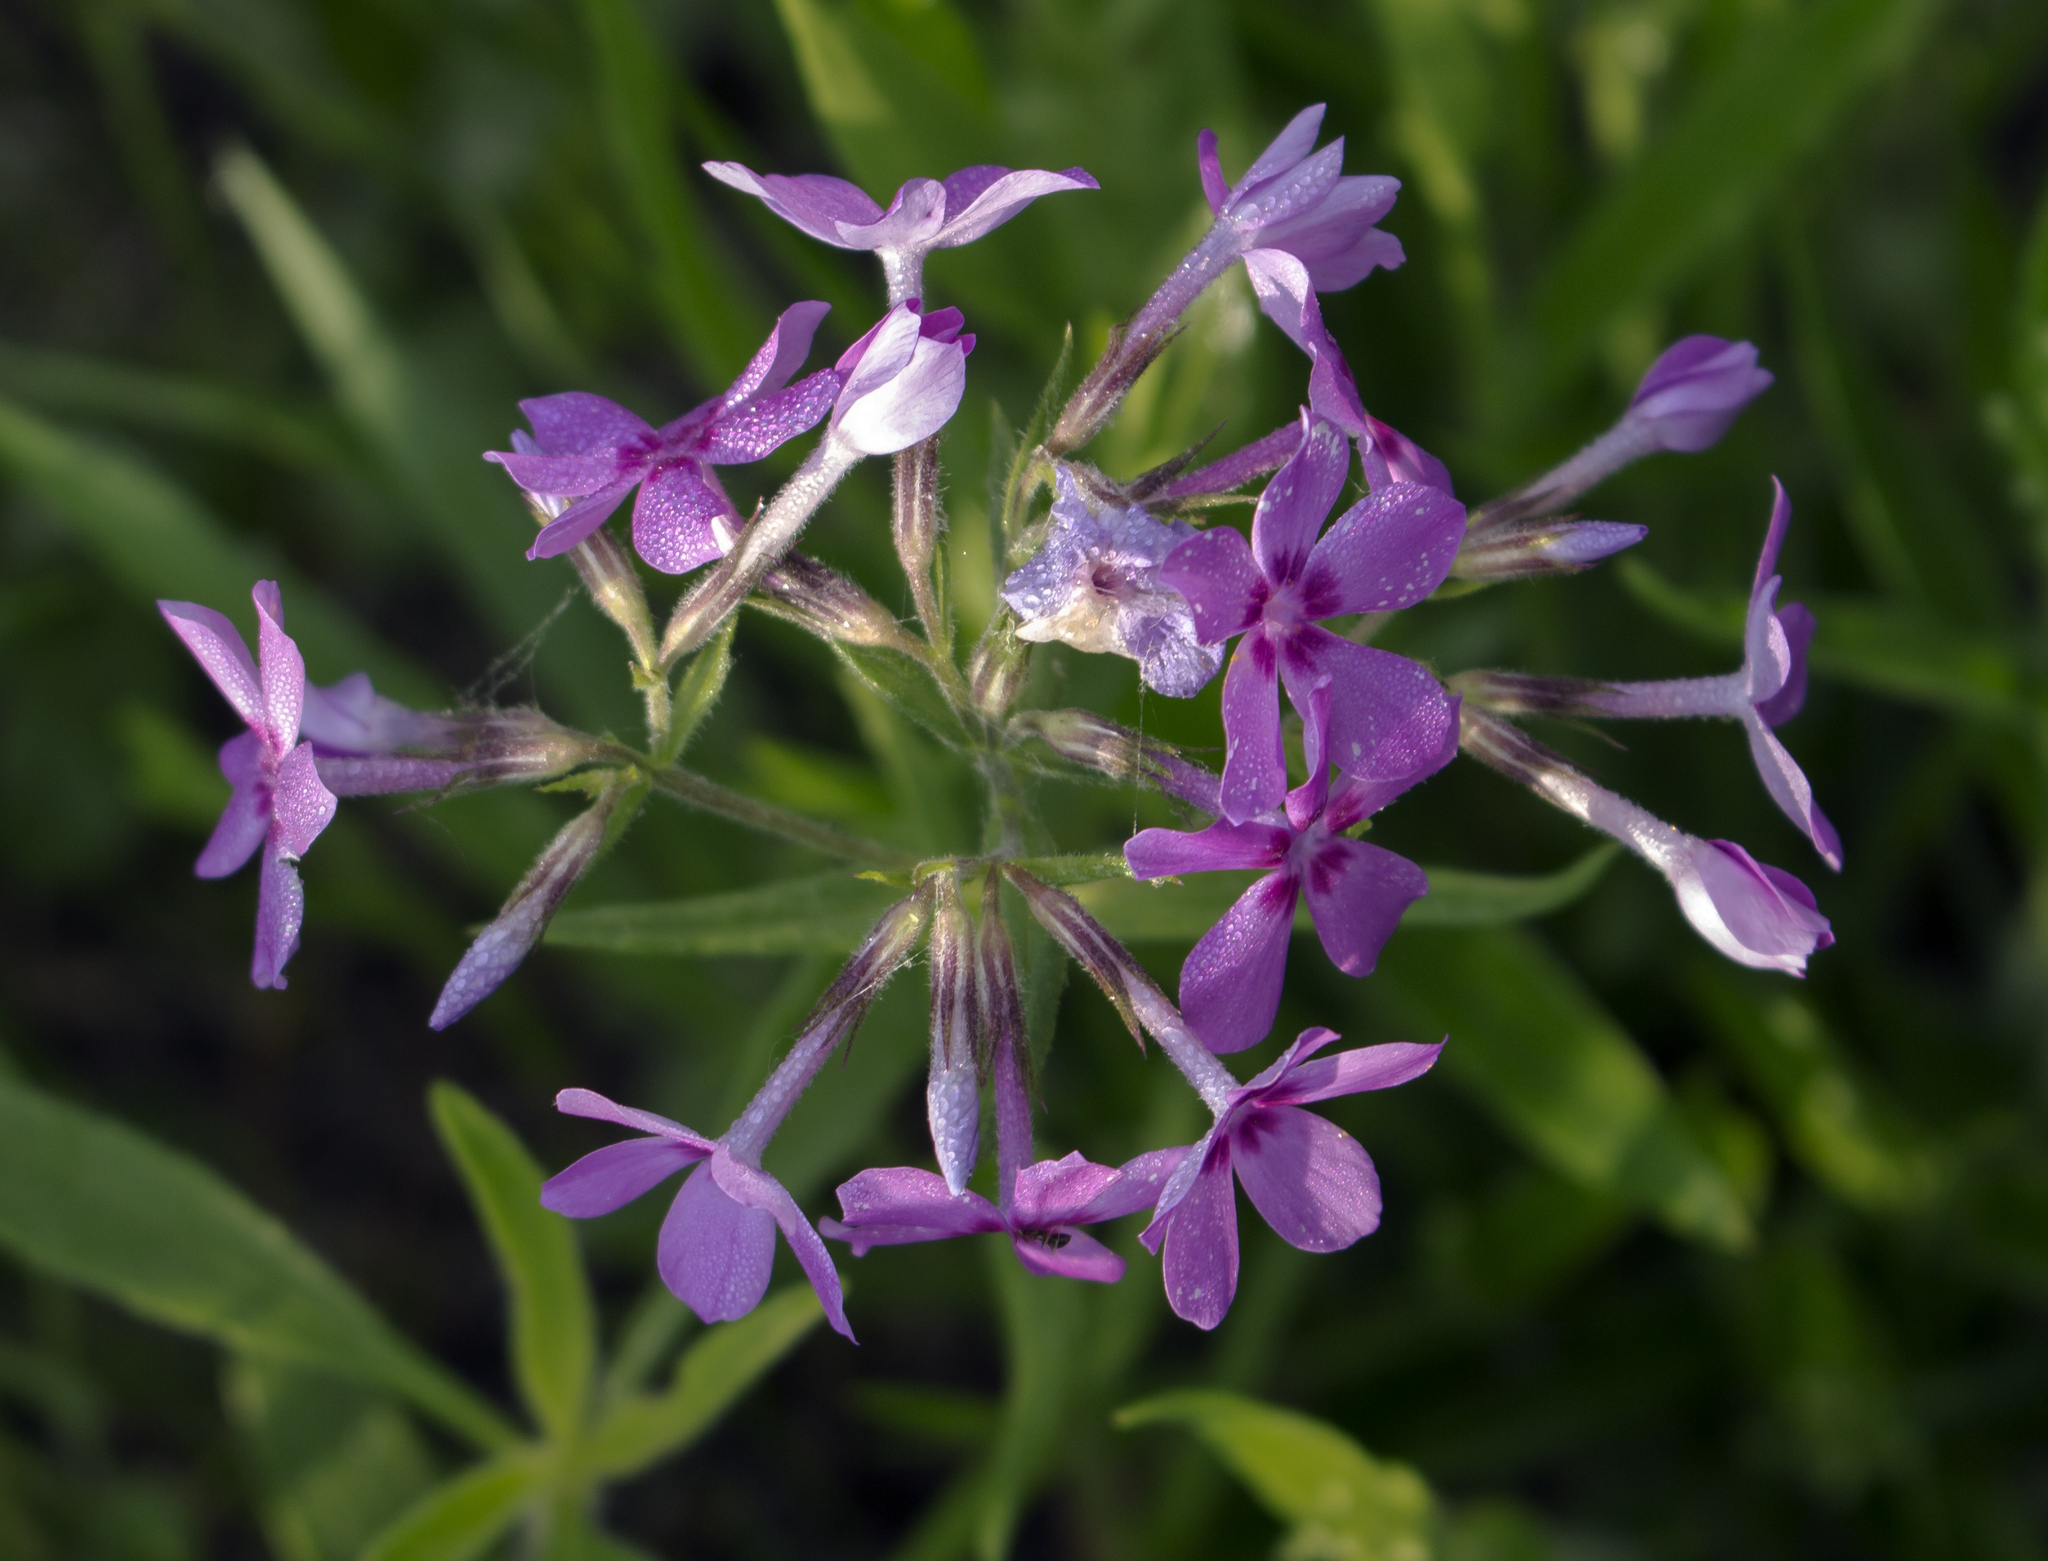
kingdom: Plantae
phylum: Tracheophyta
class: Magnoliopsida
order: Ericales
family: Polemoniaceae
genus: Phlox
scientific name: Phlox pilosa
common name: Prairie phlox
